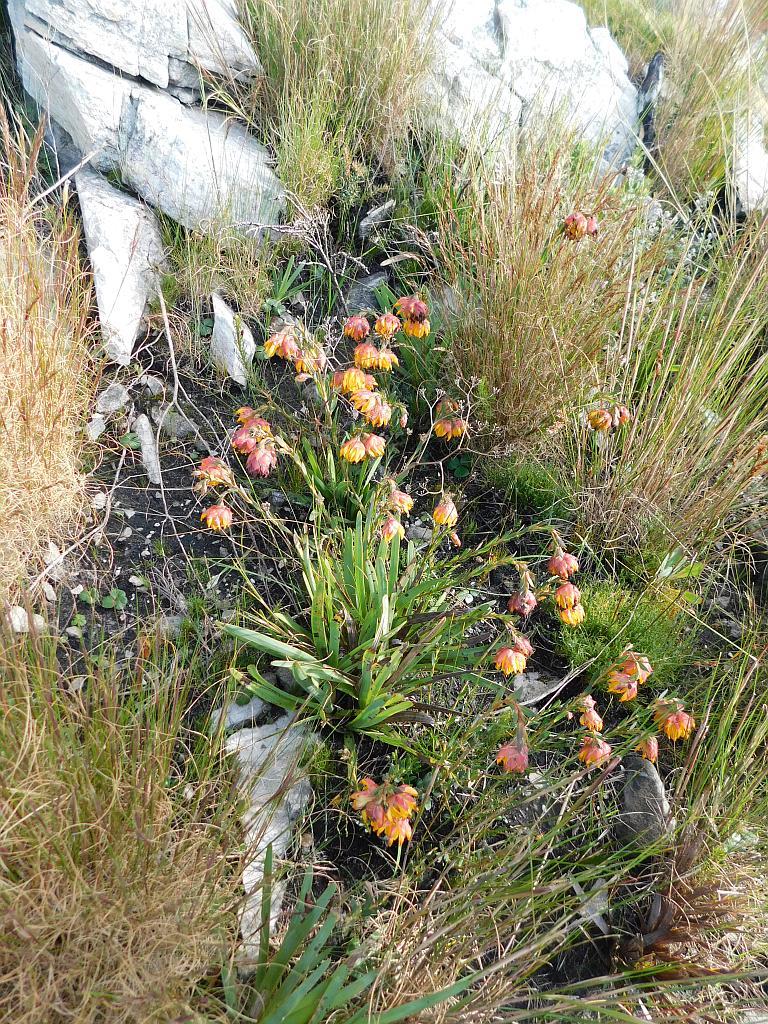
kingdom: Plantae
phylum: Tracheophyta
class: Magnoliopsida
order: Fabales
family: Fabaceae
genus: Liparia
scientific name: Liparia splendens
